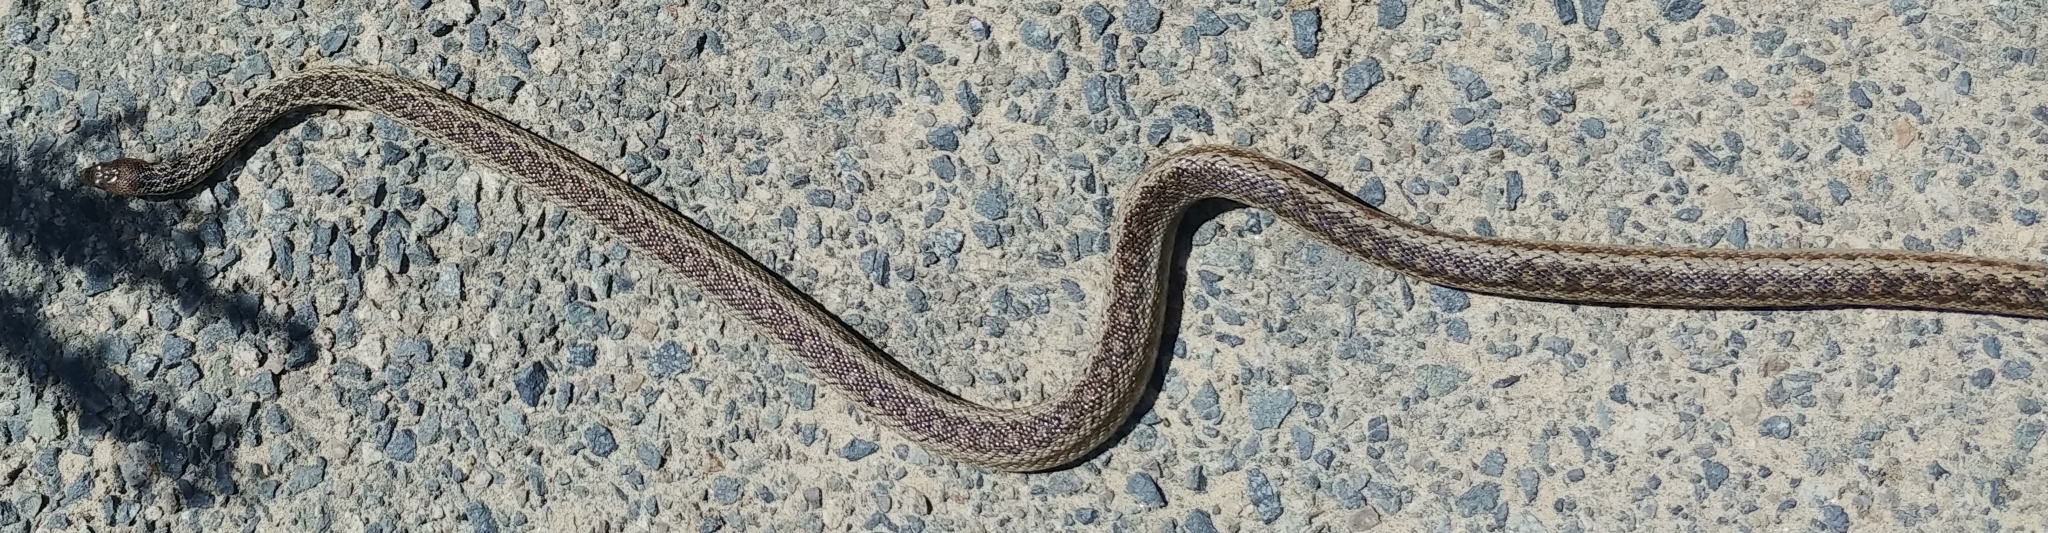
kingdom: Animalia
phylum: Chordata
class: Squamata
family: Colubridae
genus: Pituophis
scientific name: Pituophis catenifer
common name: Gopher snake
